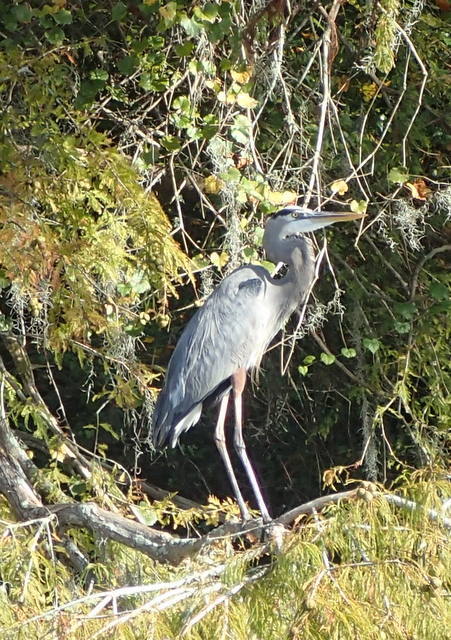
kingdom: Animalia
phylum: Chordata
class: Aves
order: Pelecaniformes
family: Ardeidae
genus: Ardea
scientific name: Ardea herodias
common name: Great blue heron
